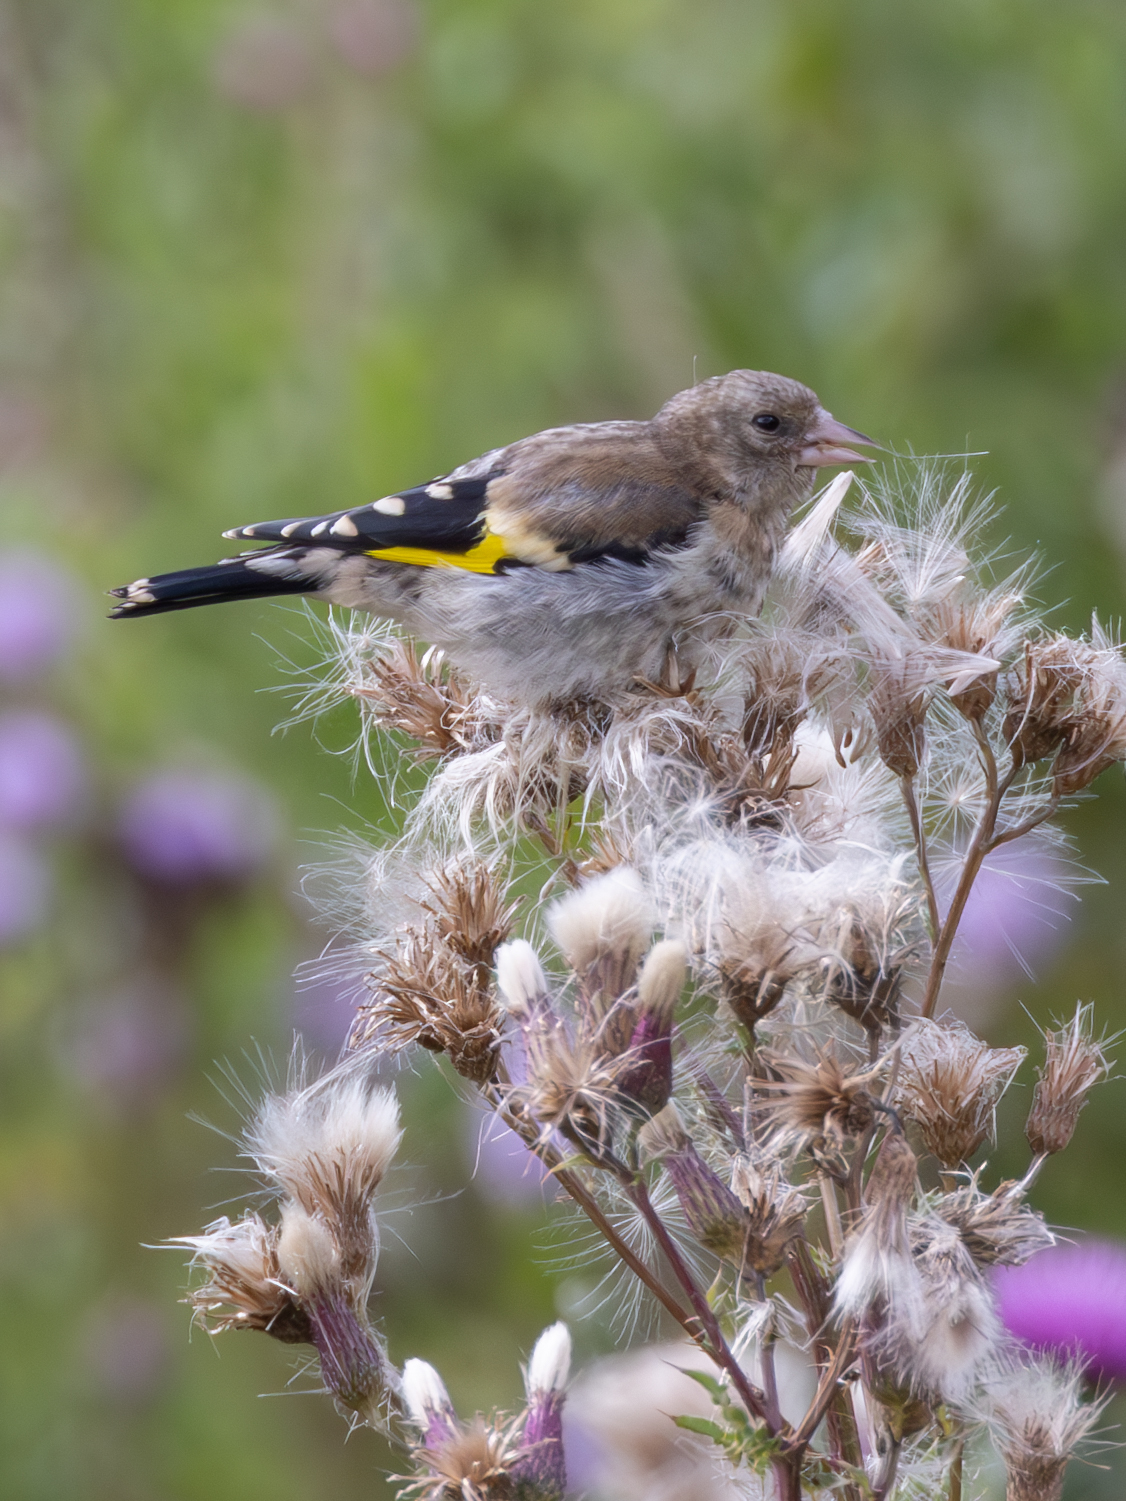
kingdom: Animalia
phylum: Chordata
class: Aves
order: Passeriformes
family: Fringillidae
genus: Carduelis
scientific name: Carduelis carduelis
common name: European goldfinch
